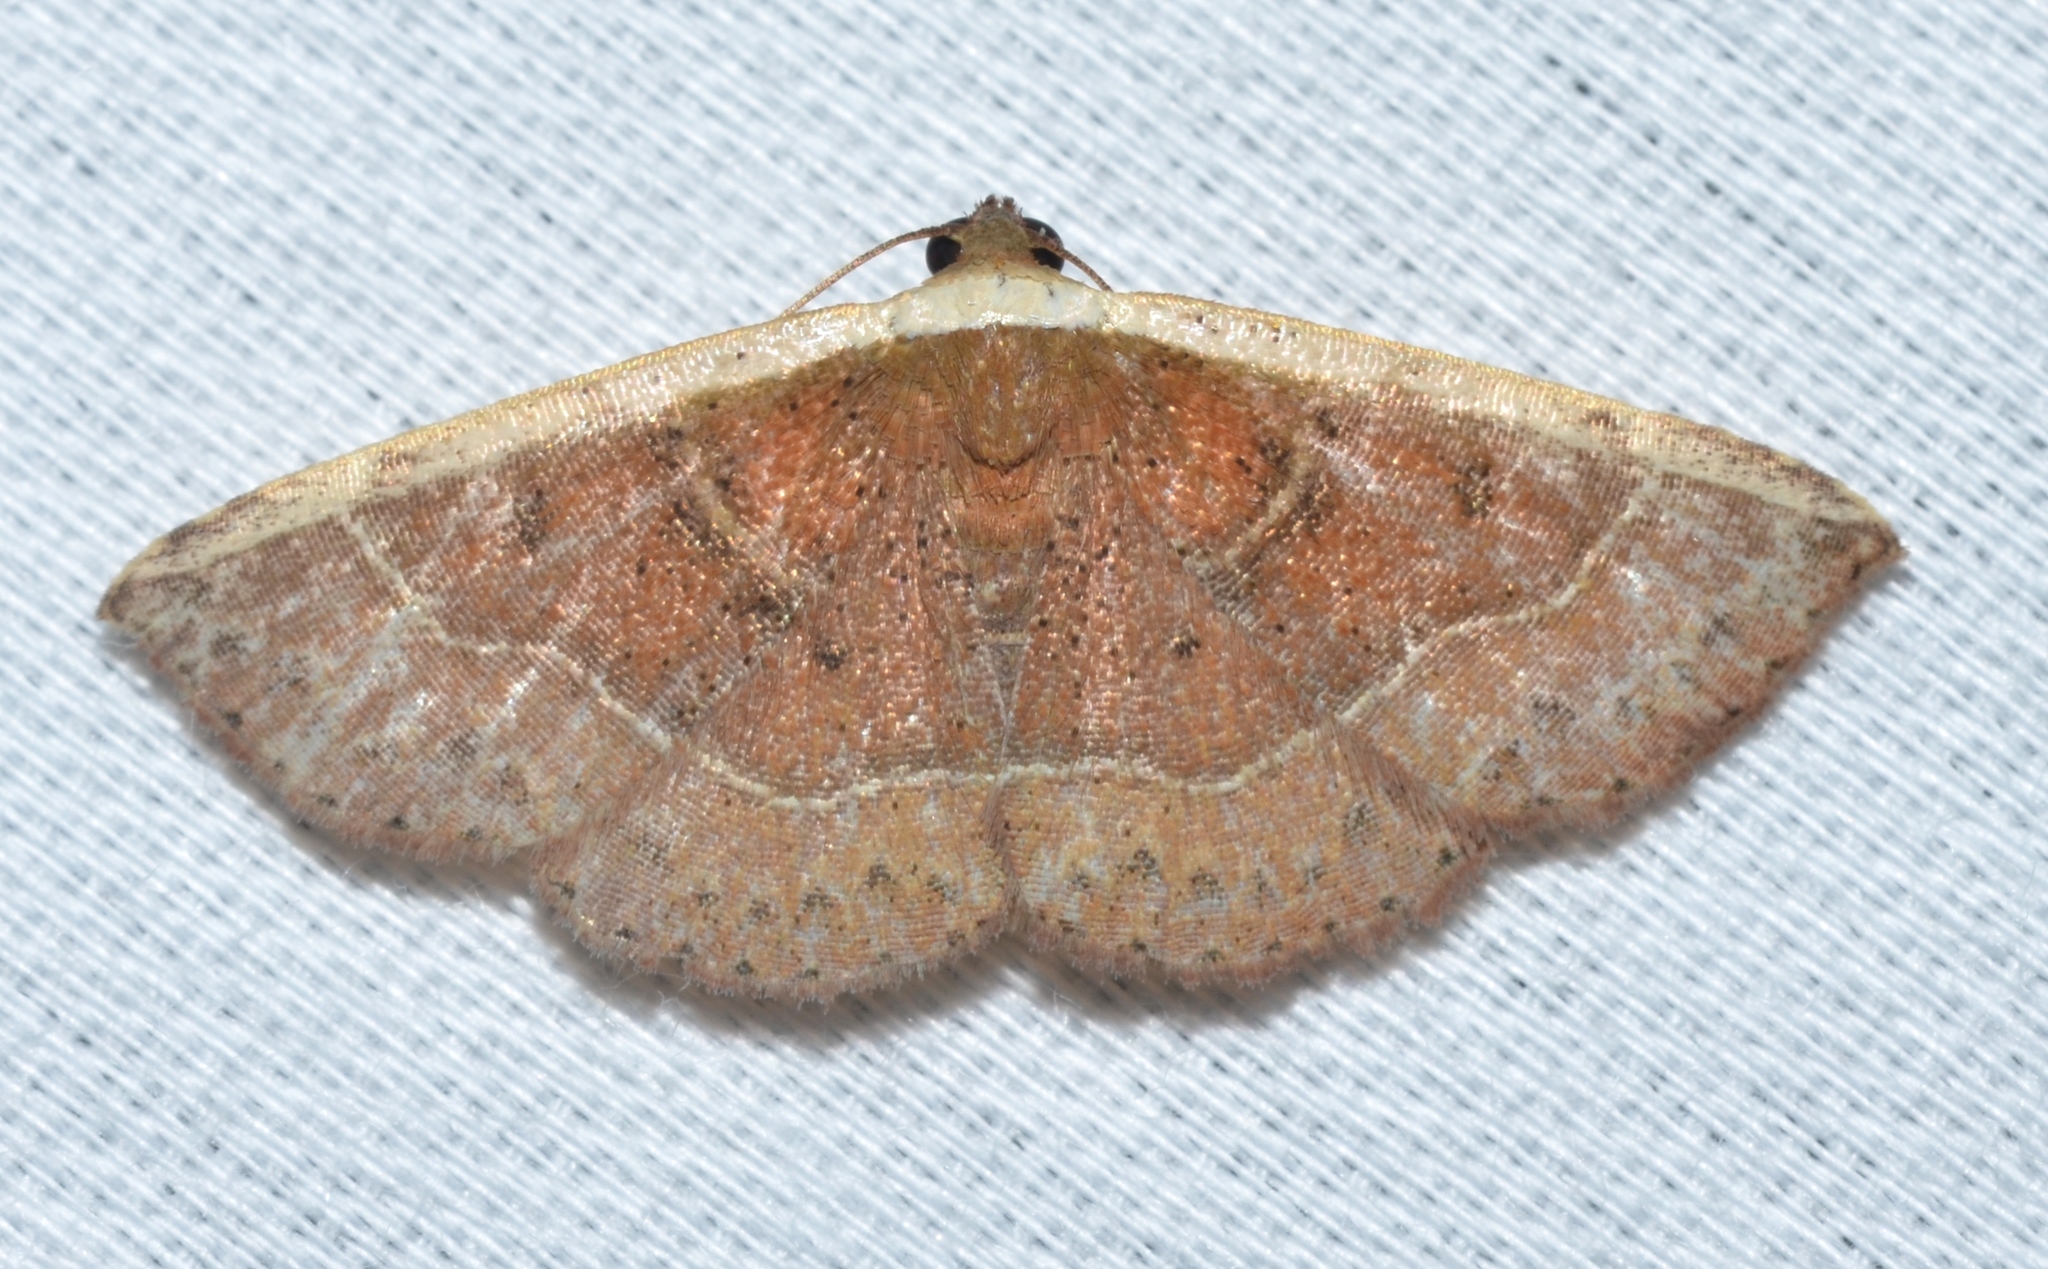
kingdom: Animalia
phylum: Arthropoda
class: Insecta
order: Lepidoptera
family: Noctuidae
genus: Ozarba
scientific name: Ozarba albocostaliata
